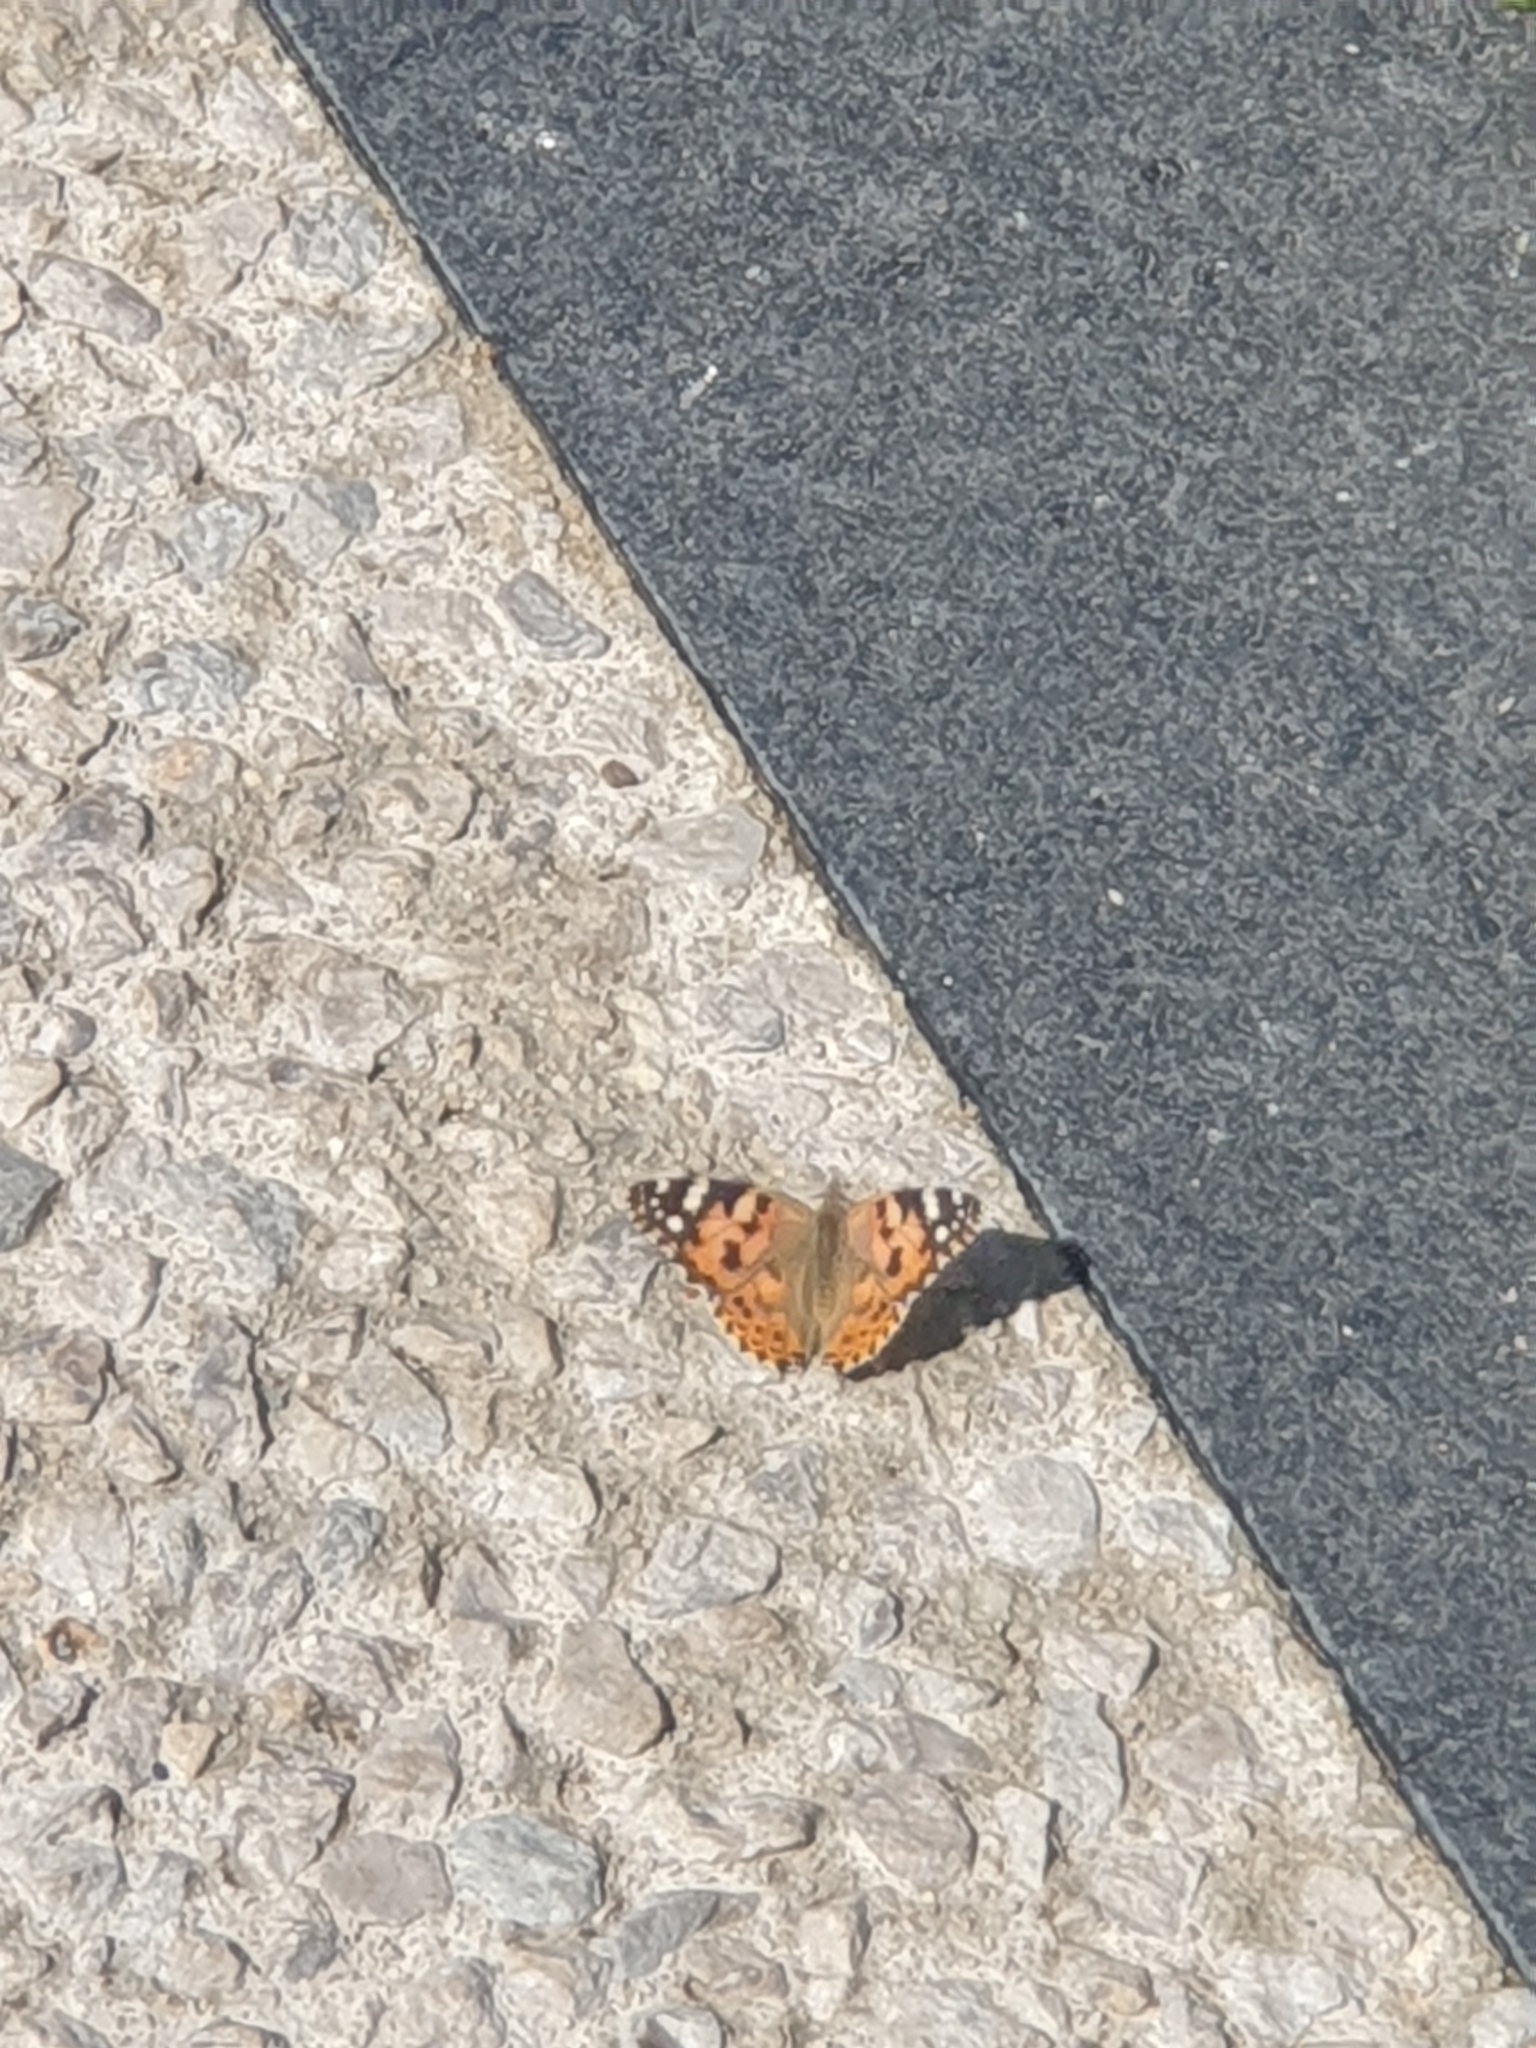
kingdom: Animalia
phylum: Arthropoda
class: Insecta
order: Lepidoptera
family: Nymphalidae
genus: Vanessa
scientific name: Vanessa cardui
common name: Painted lady
